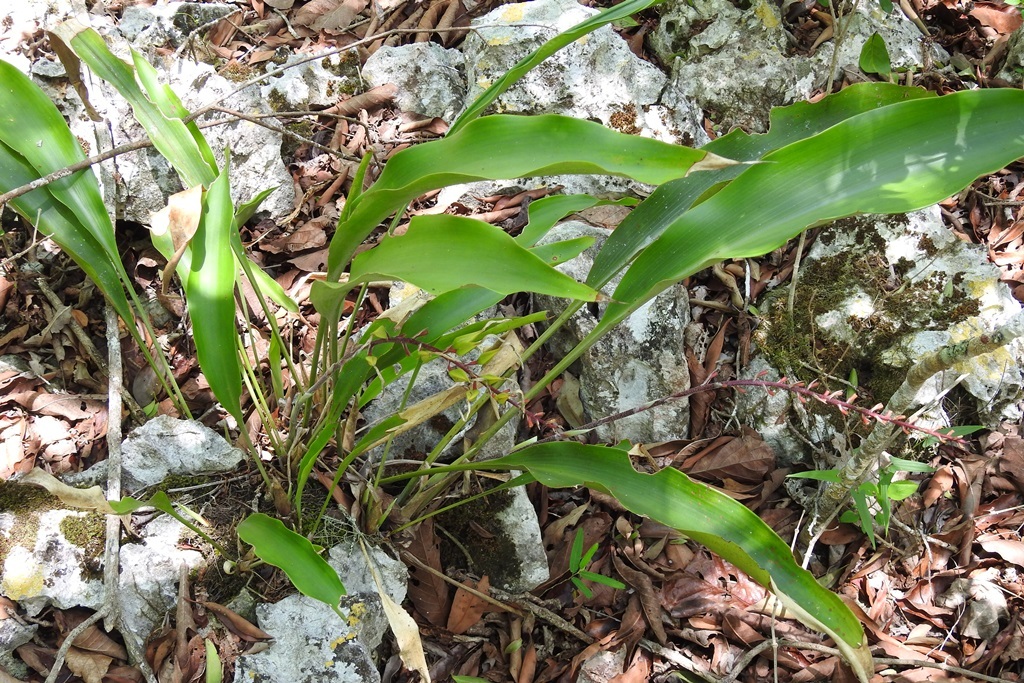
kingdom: Plantae
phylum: Tracheophyta
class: Liliopsida
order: Poales
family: Bromeliaceae
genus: Pitcairnia
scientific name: Pitcairnia chiapensis
